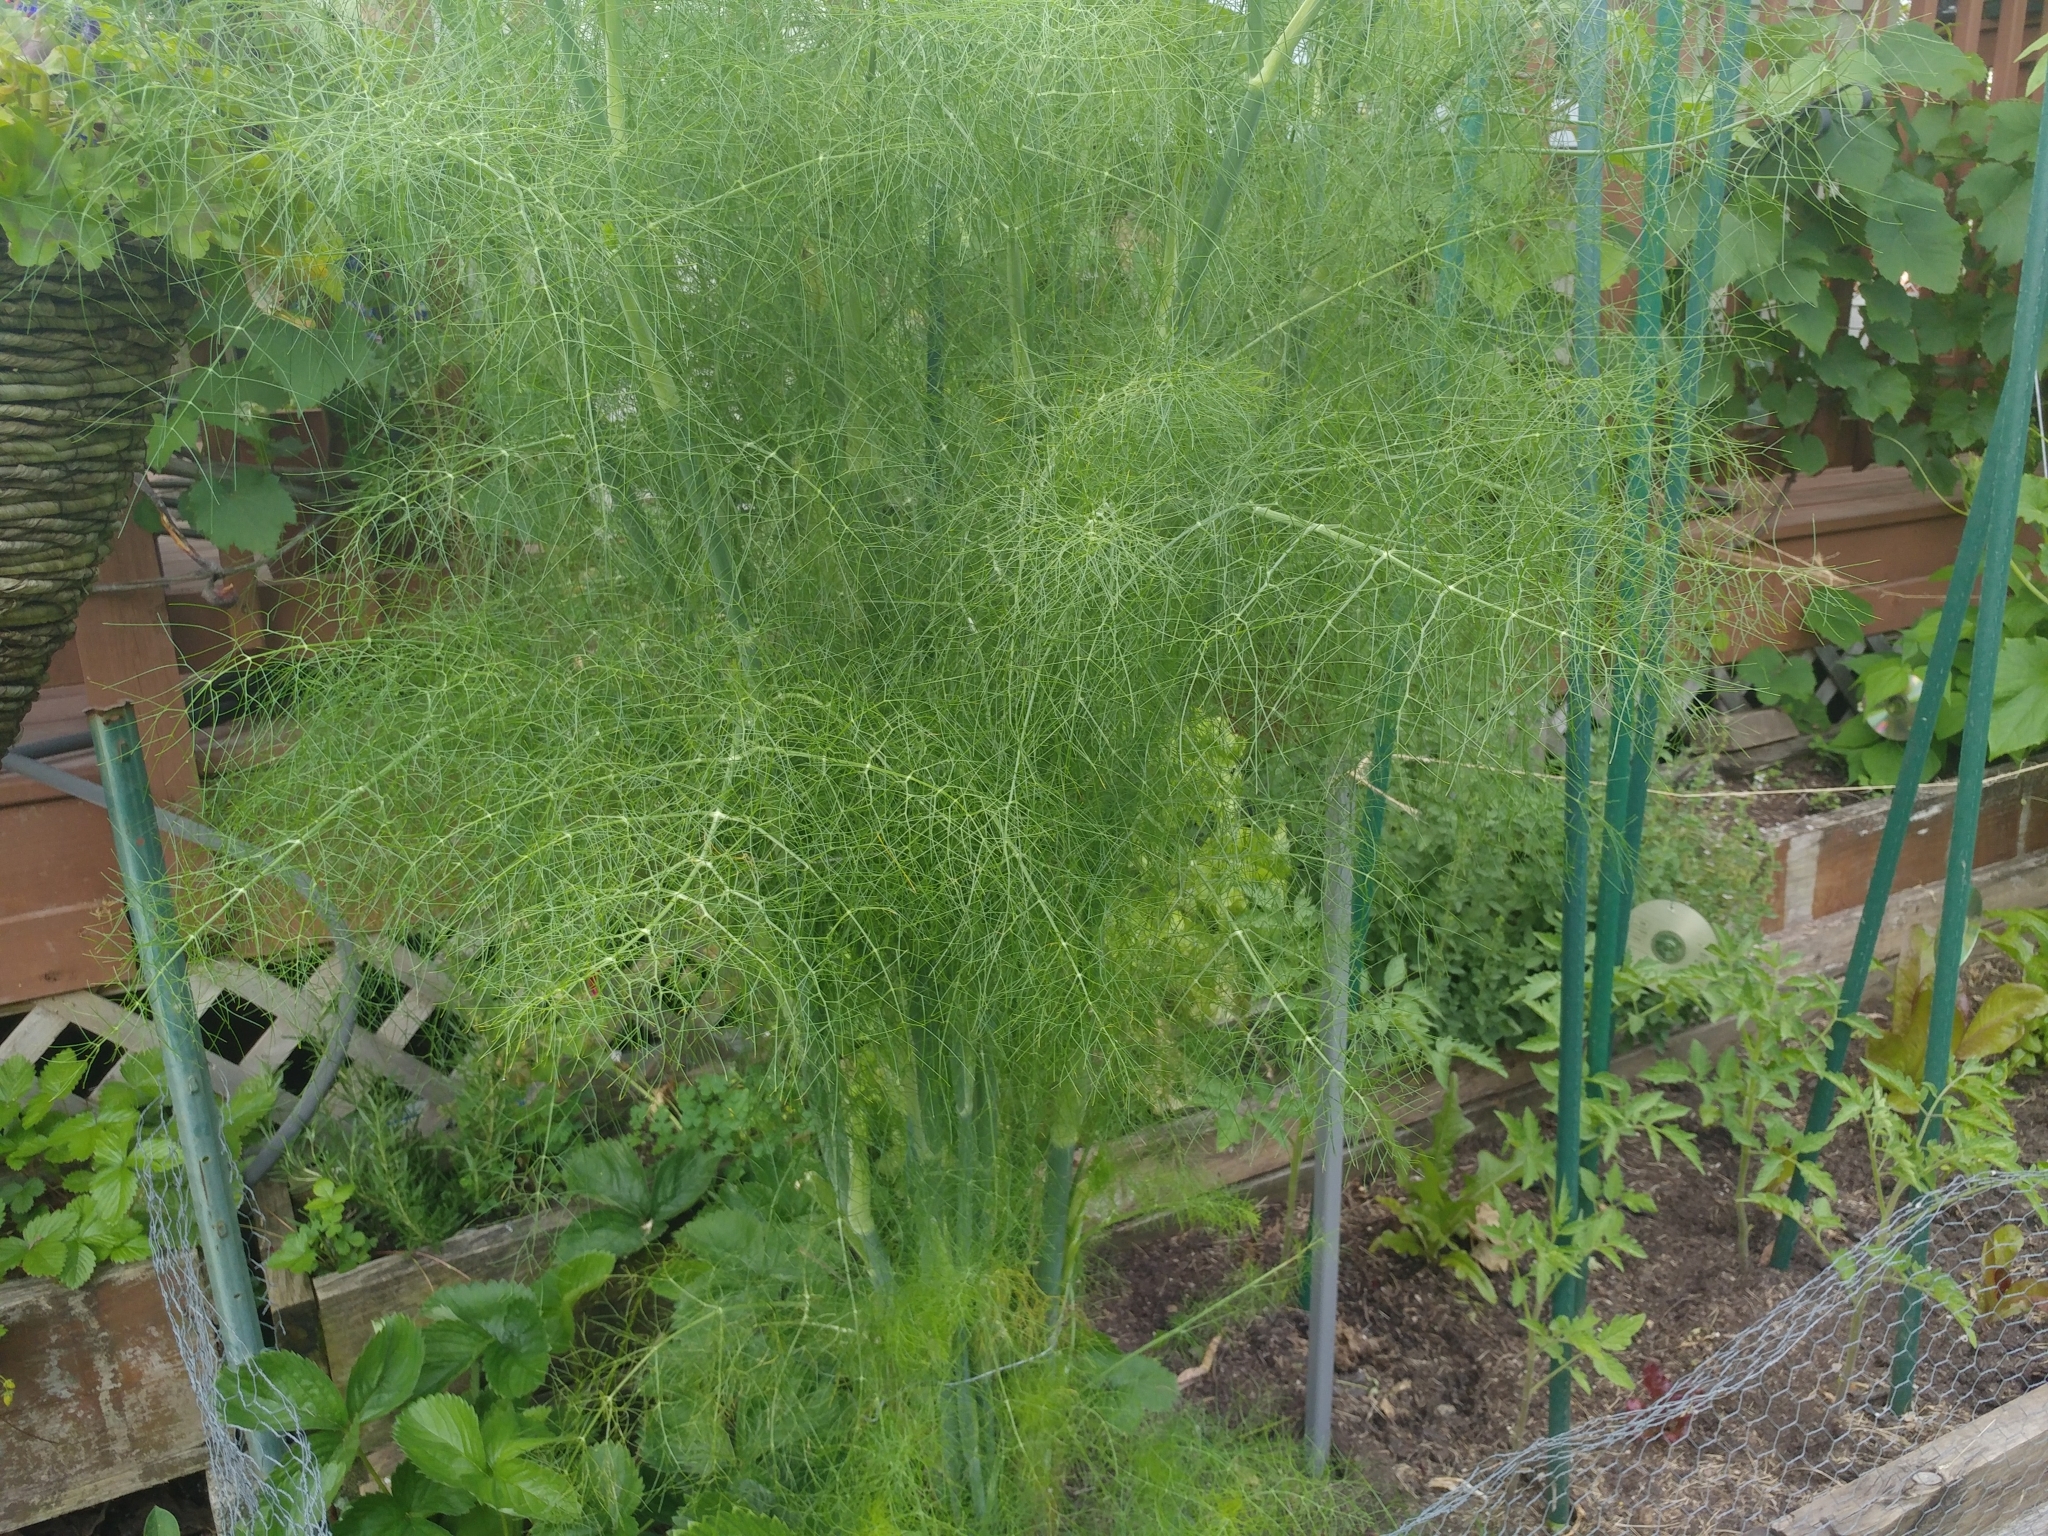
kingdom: Plantae
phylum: Tracheophyta
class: Magnoliopsida
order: Apiales
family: Apiaceae
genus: Foeniculum
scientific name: Foeniculum vulgare
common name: Fennel
